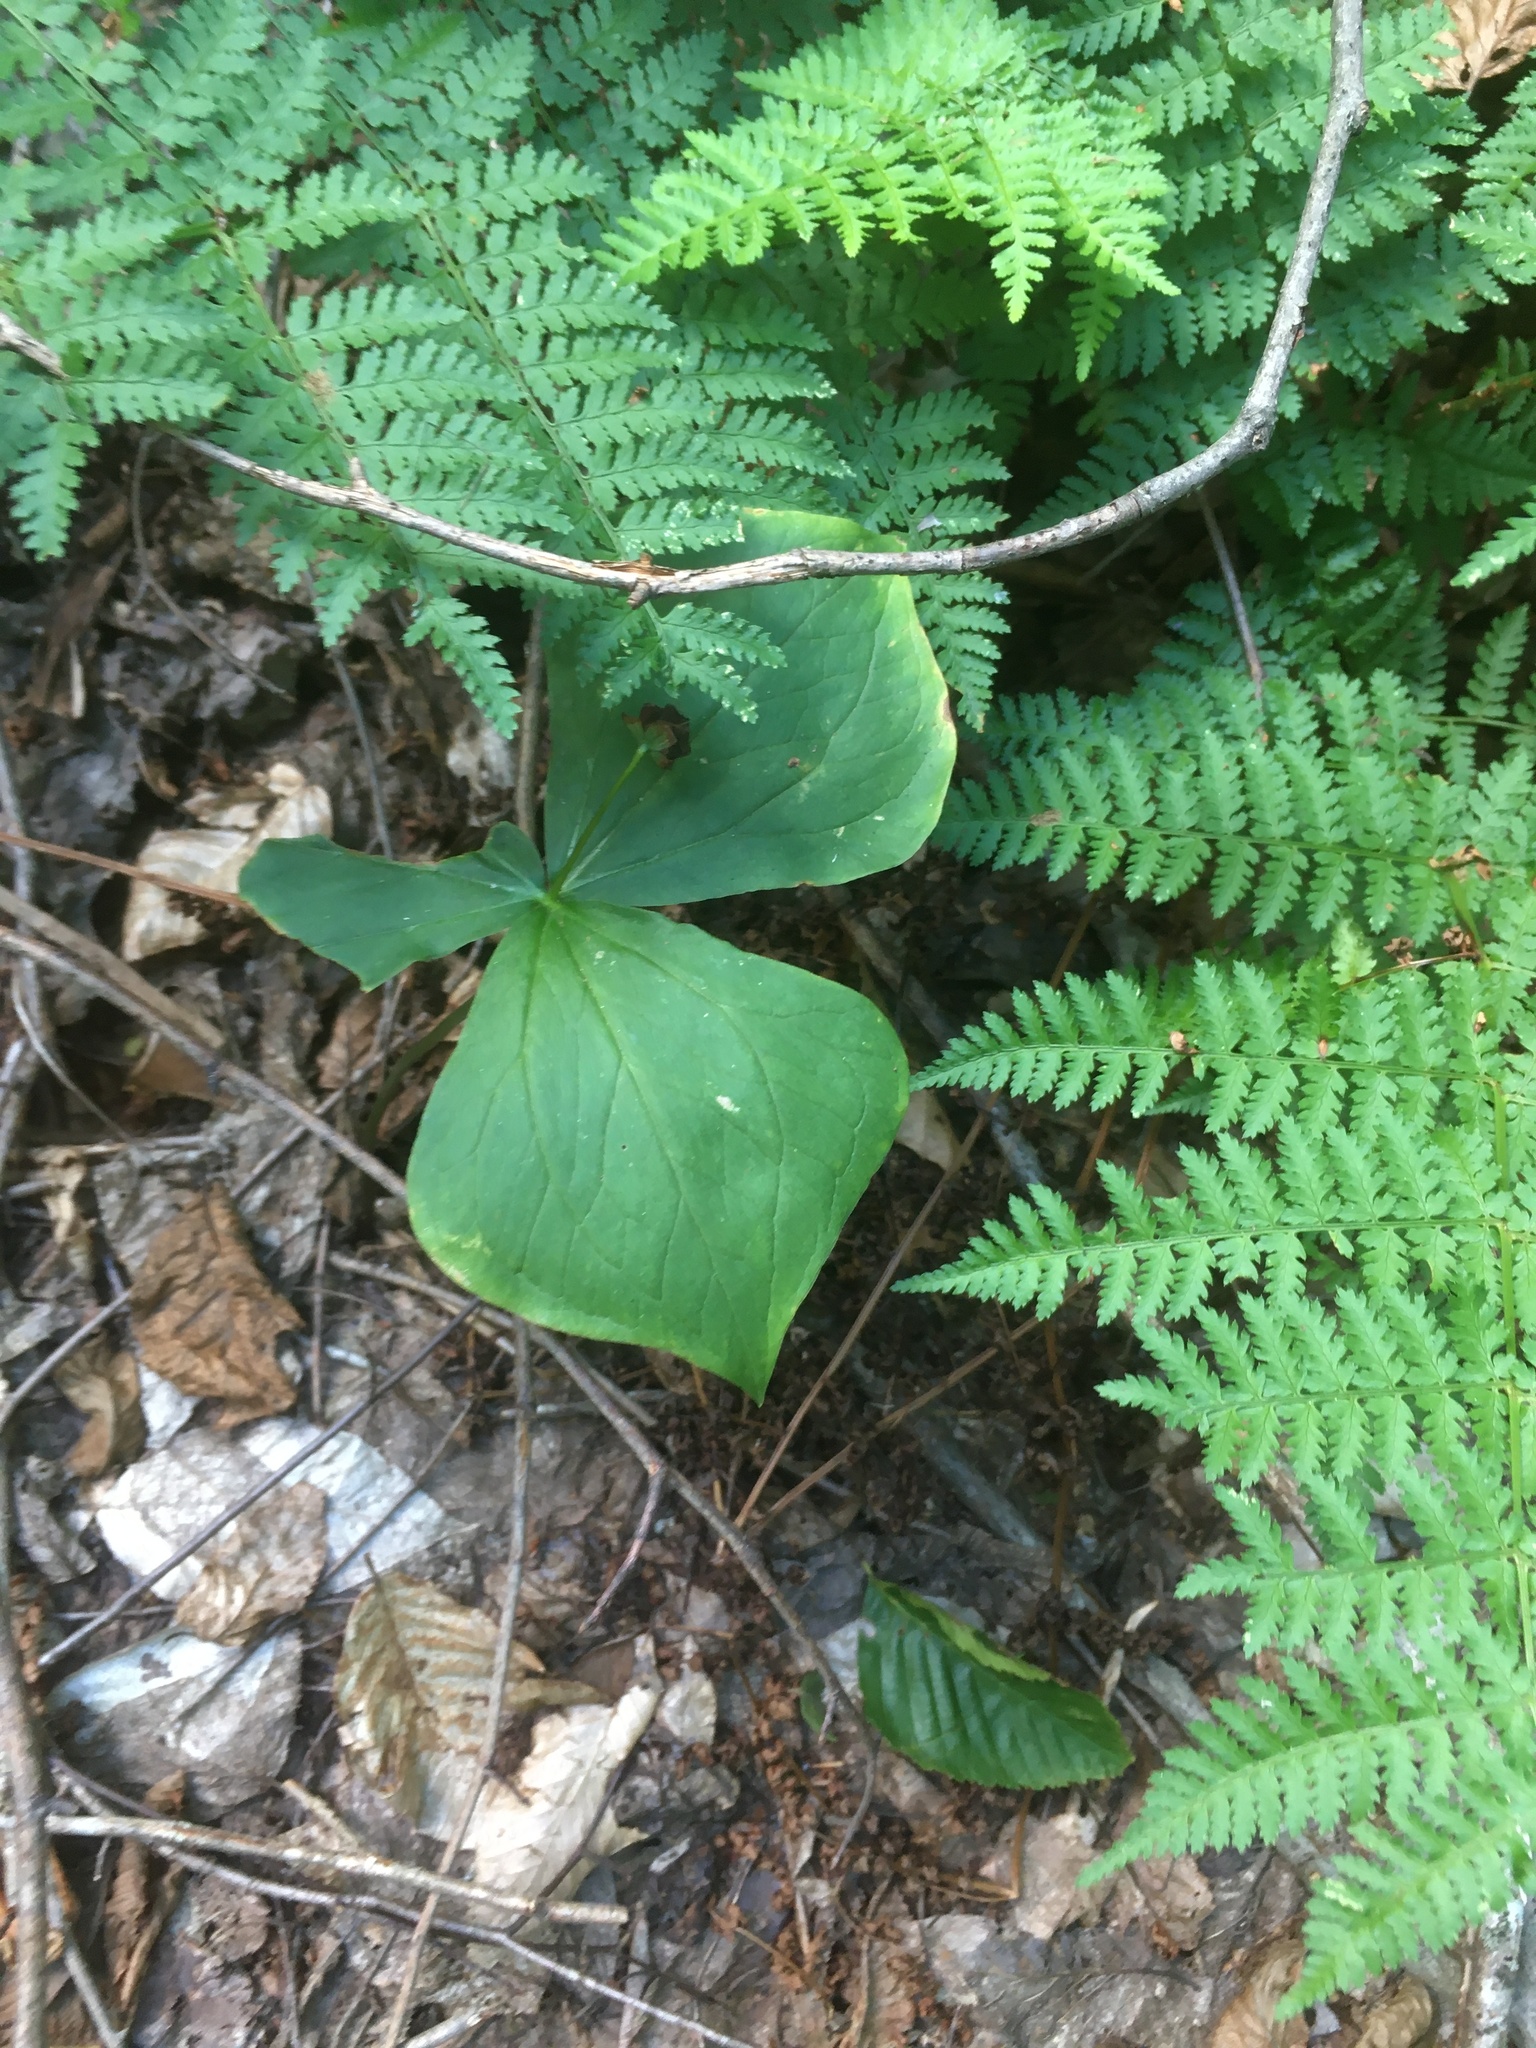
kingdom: Plantae
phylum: Tracheophyta
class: Liliopsida
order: Liliales
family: Melanthiaceae
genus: Trillium
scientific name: Trillium erectum
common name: Purple trillium
